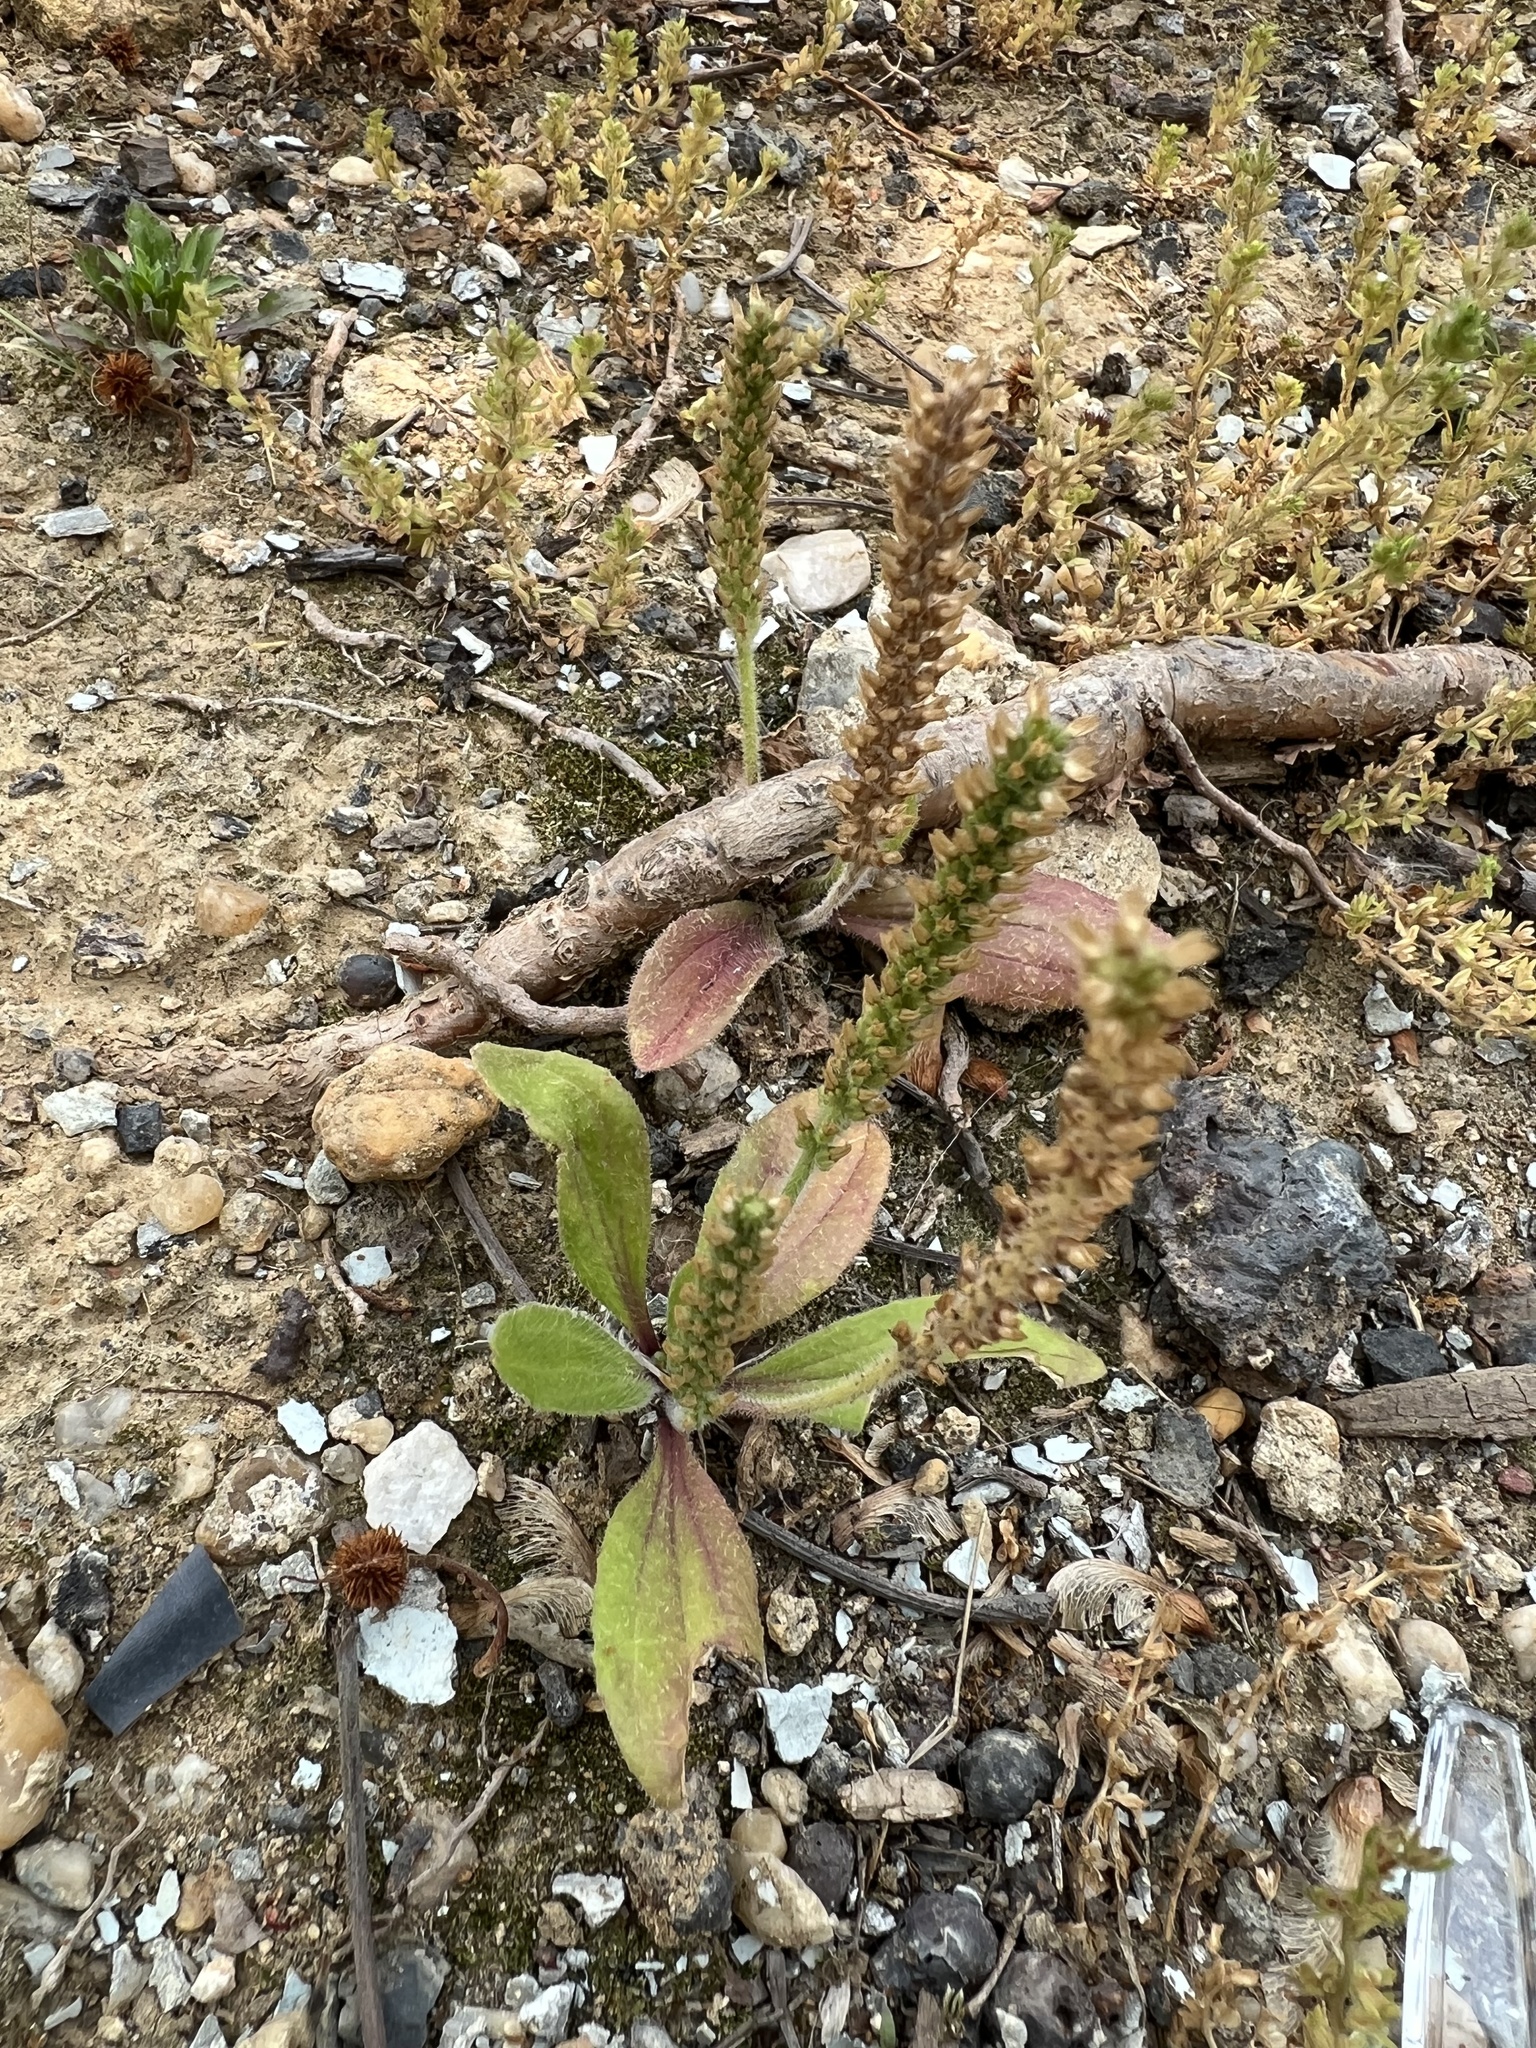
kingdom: Plantae
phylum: Tracheophyta
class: Magnoliopsida
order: Lamiales
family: Plantaginaceae
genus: Plantago
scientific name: Plantago virginica
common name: Hoary plantain
